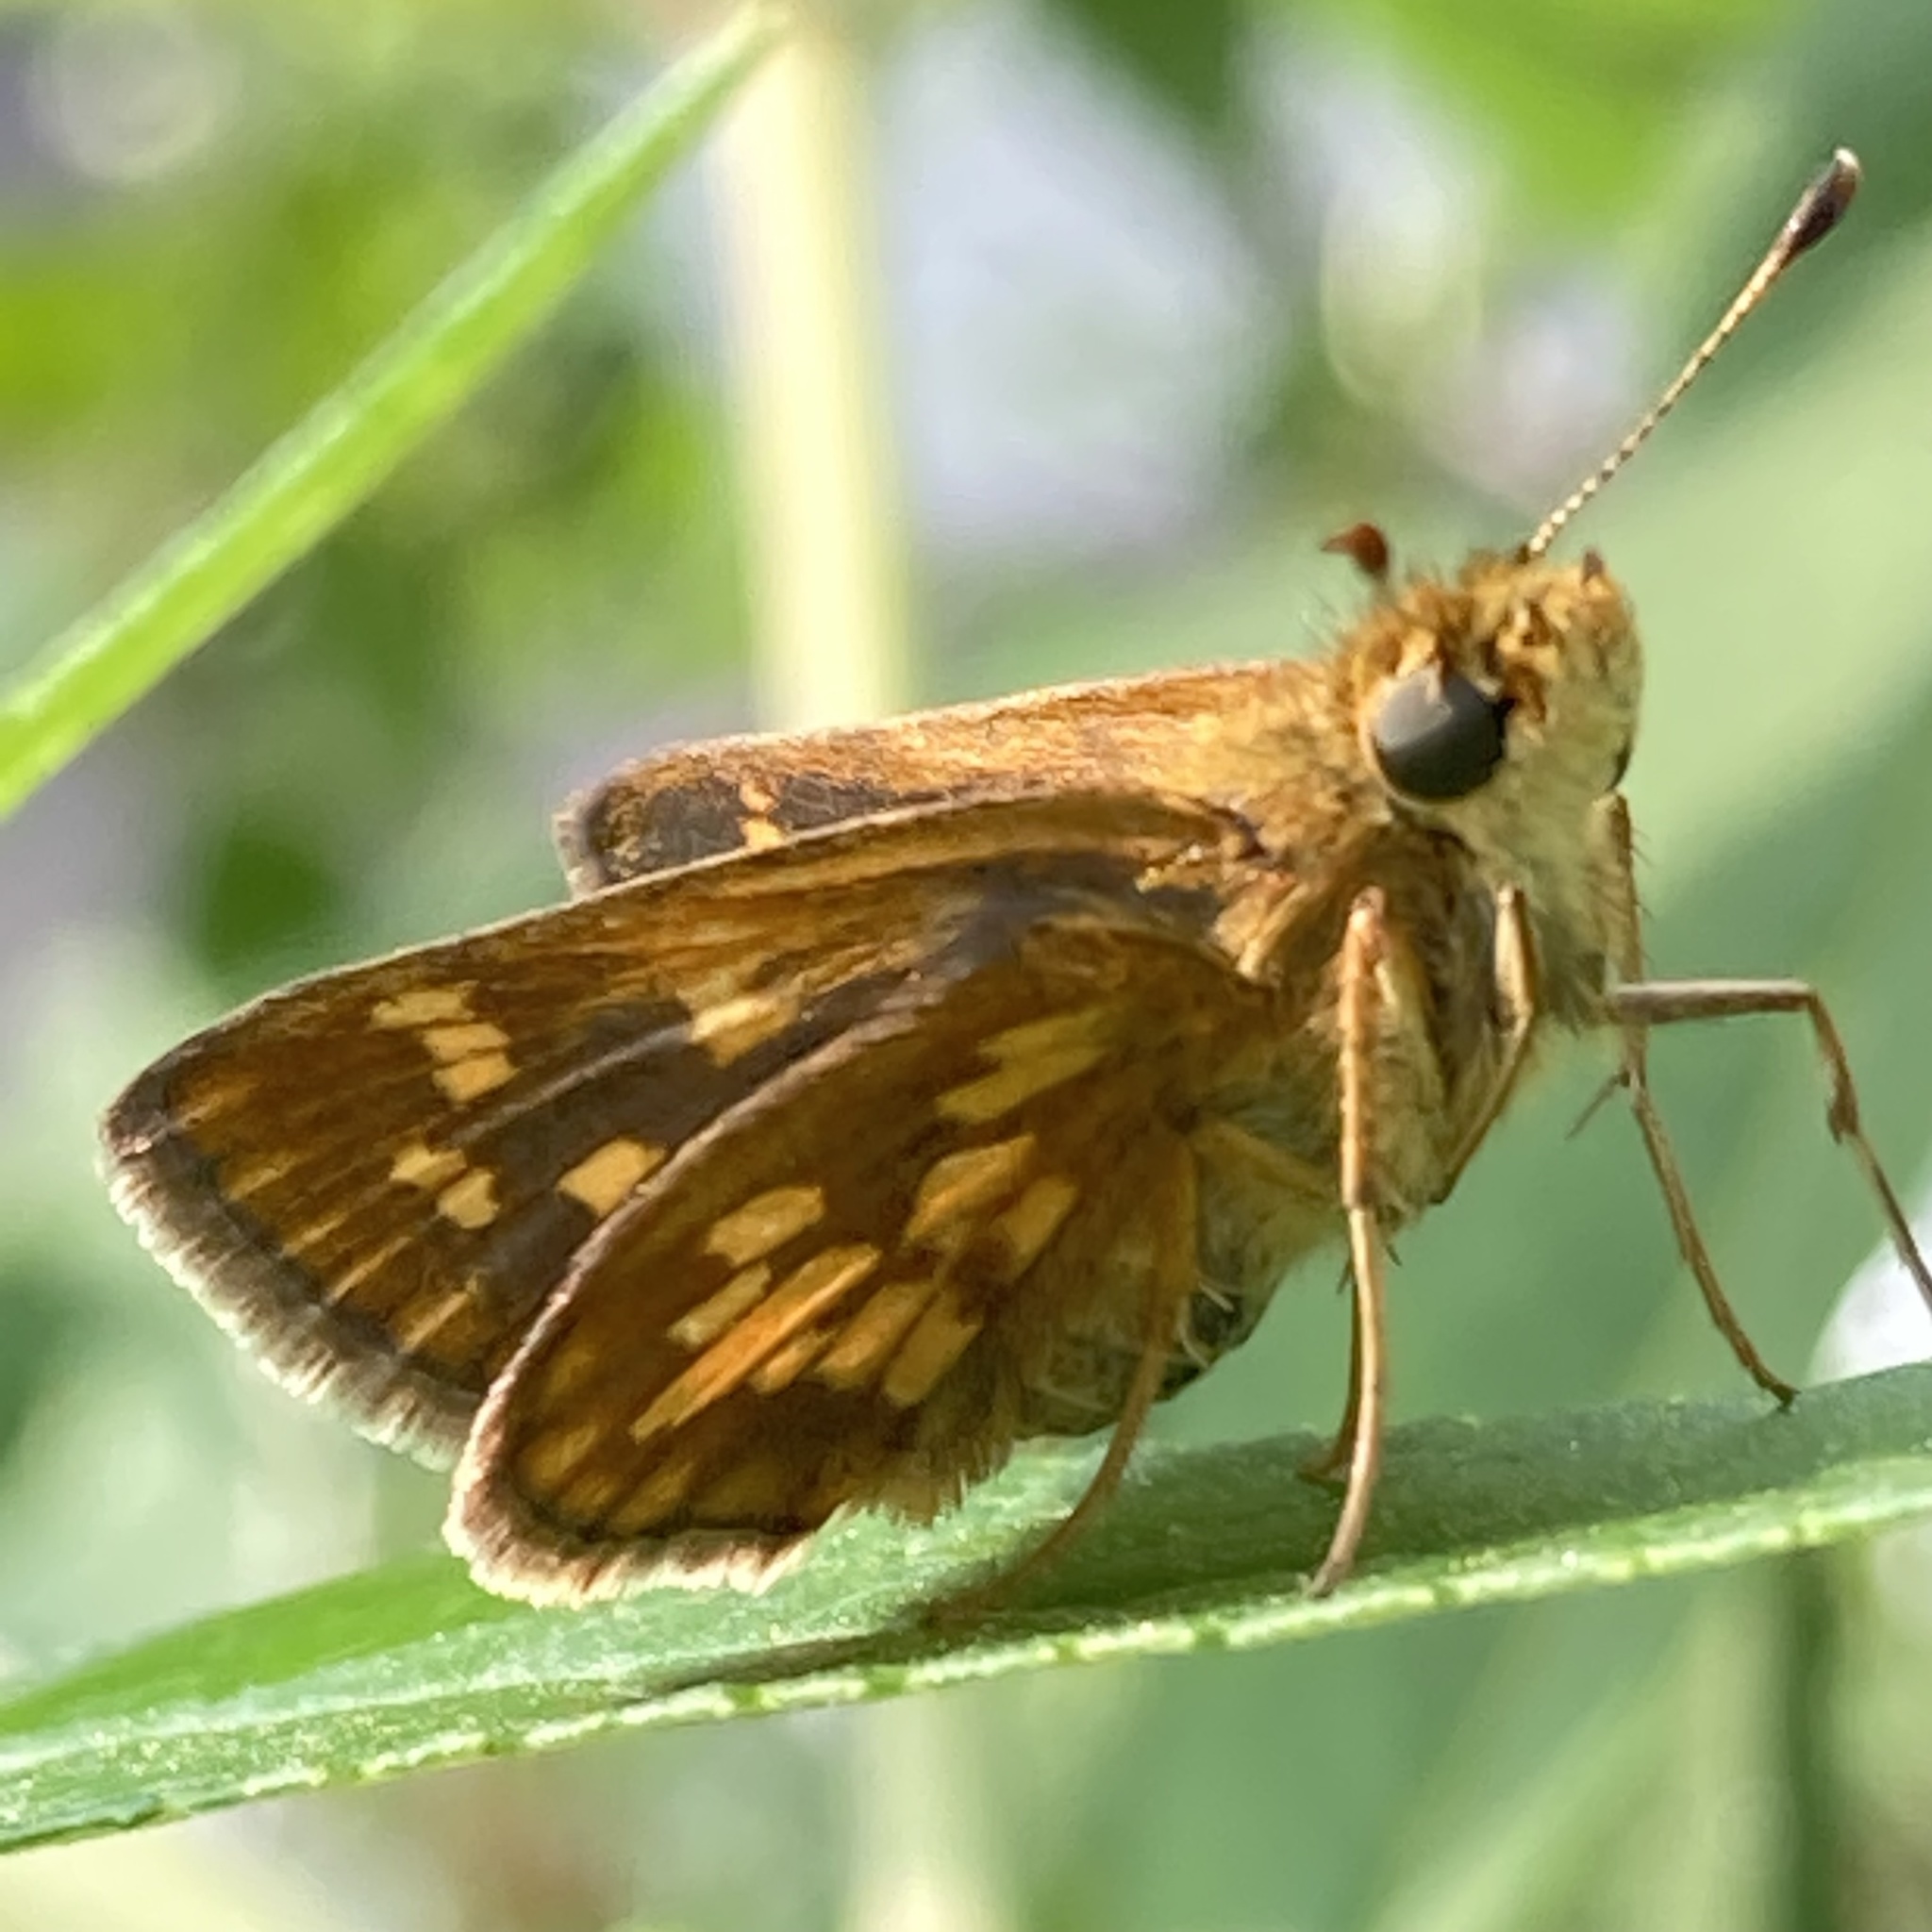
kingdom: Animalia
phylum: Arthropoda
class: Insecta
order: Lepidoptera
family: Hesperiidae
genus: Polites
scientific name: Polites coras
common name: Peck's skipper
